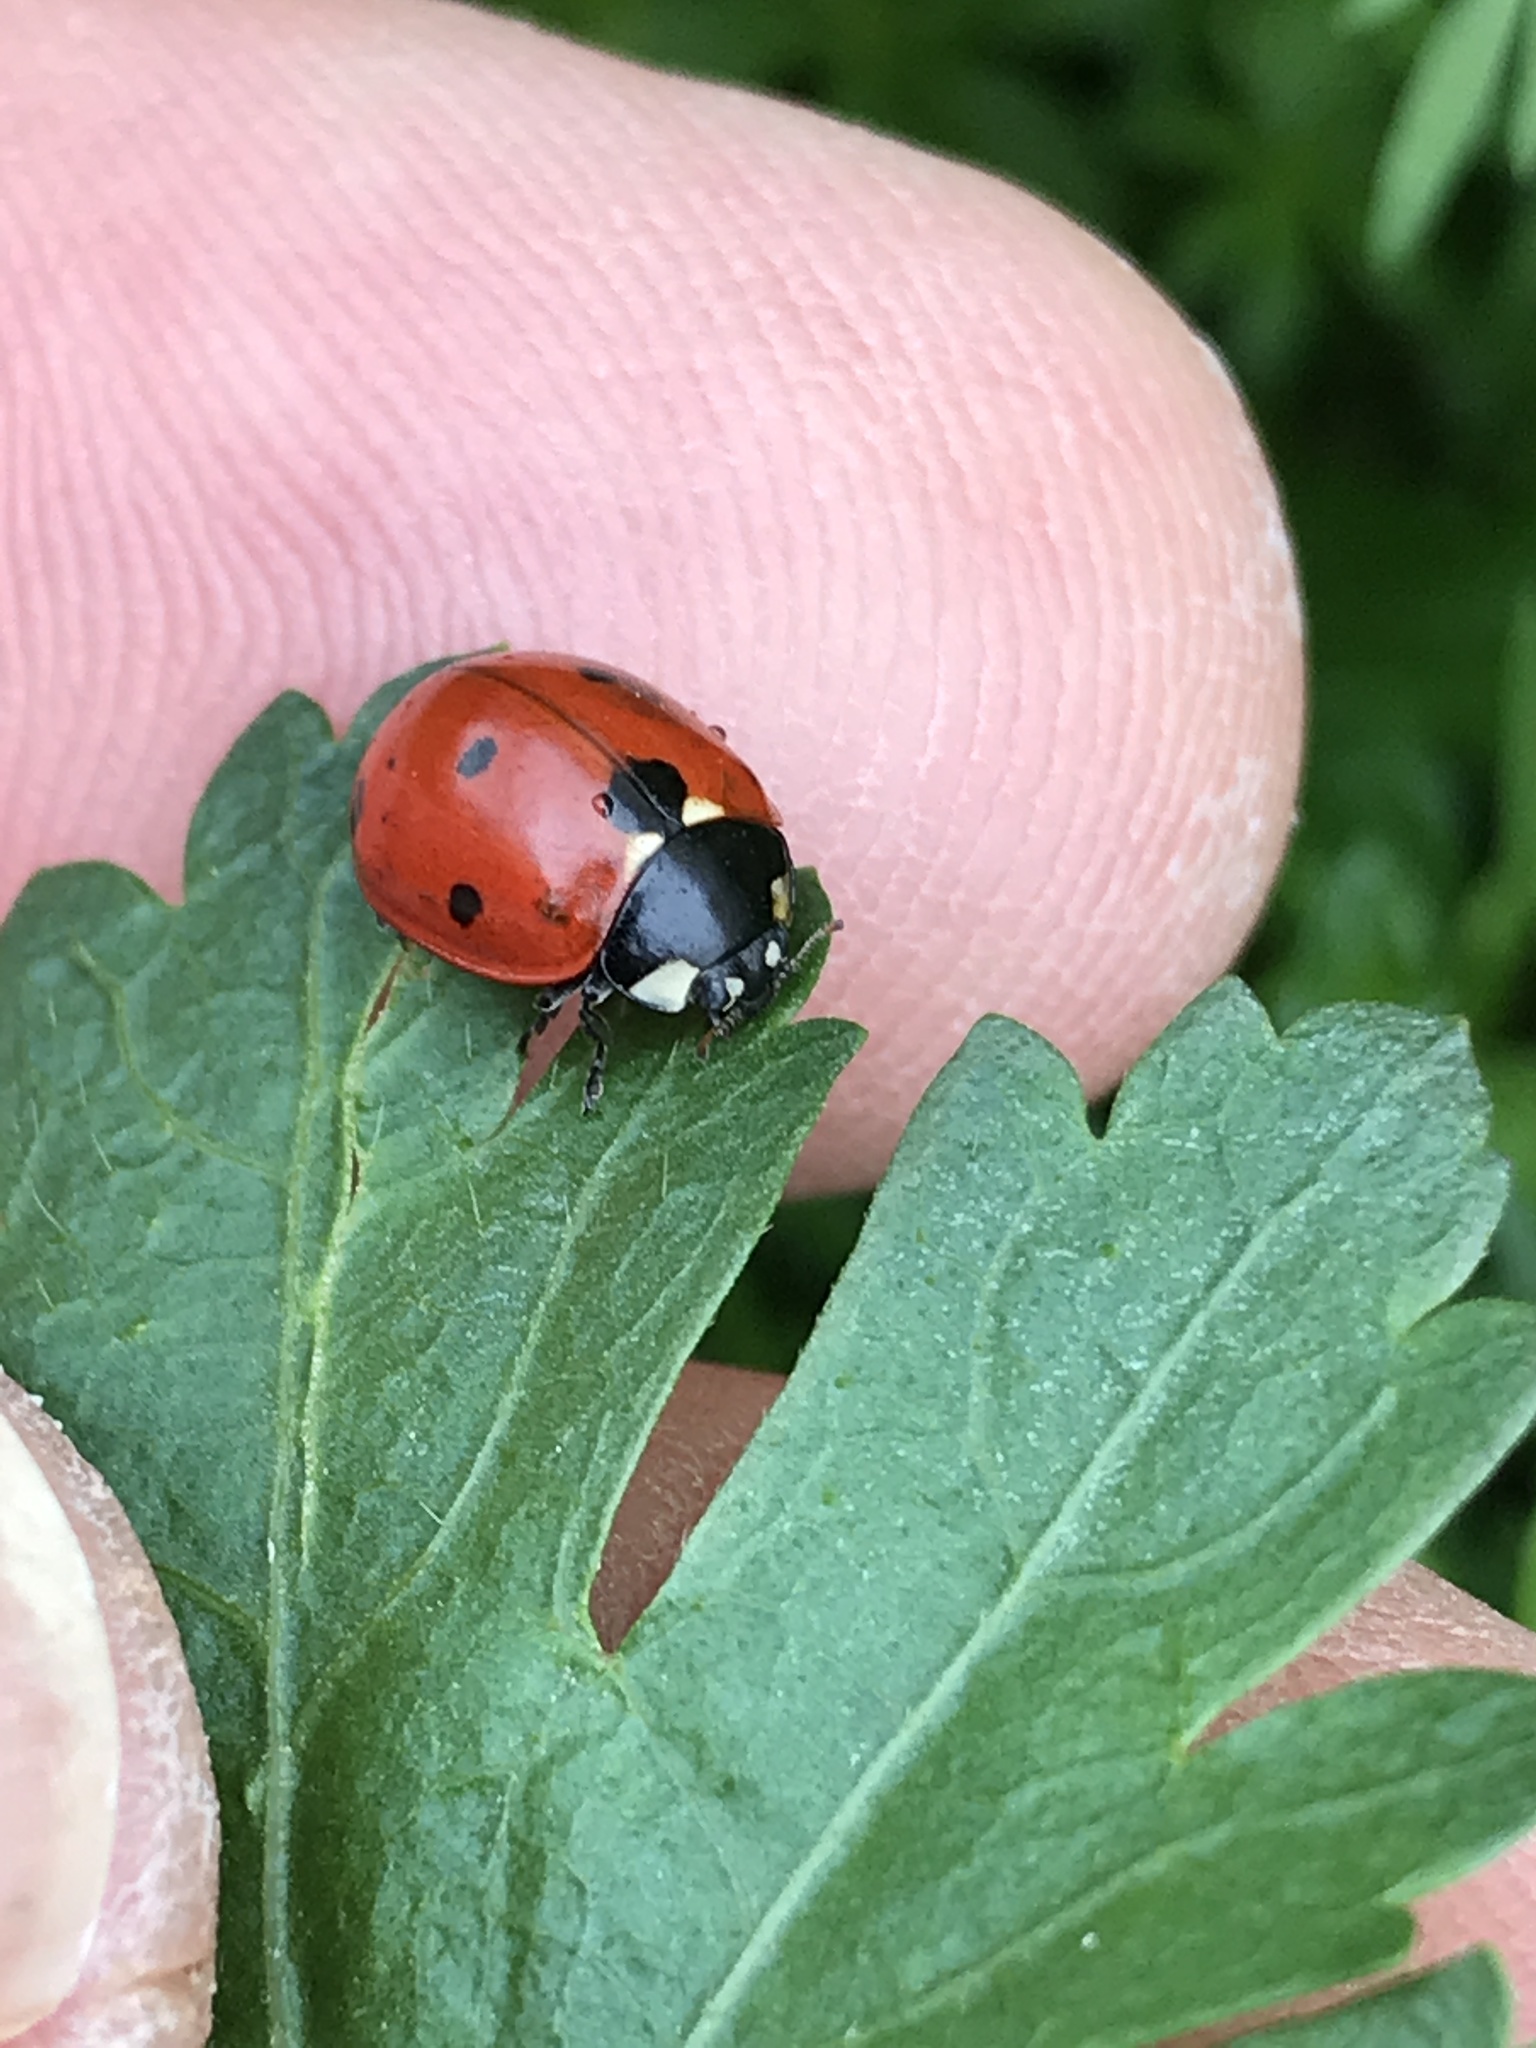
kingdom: Animalia
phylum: Arthropoda
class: Insecta
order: Coleoptera
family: Coccinellidae
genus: Coccinella
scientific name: Coccinella septempunctata
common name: Sevenspotted lady beetle
